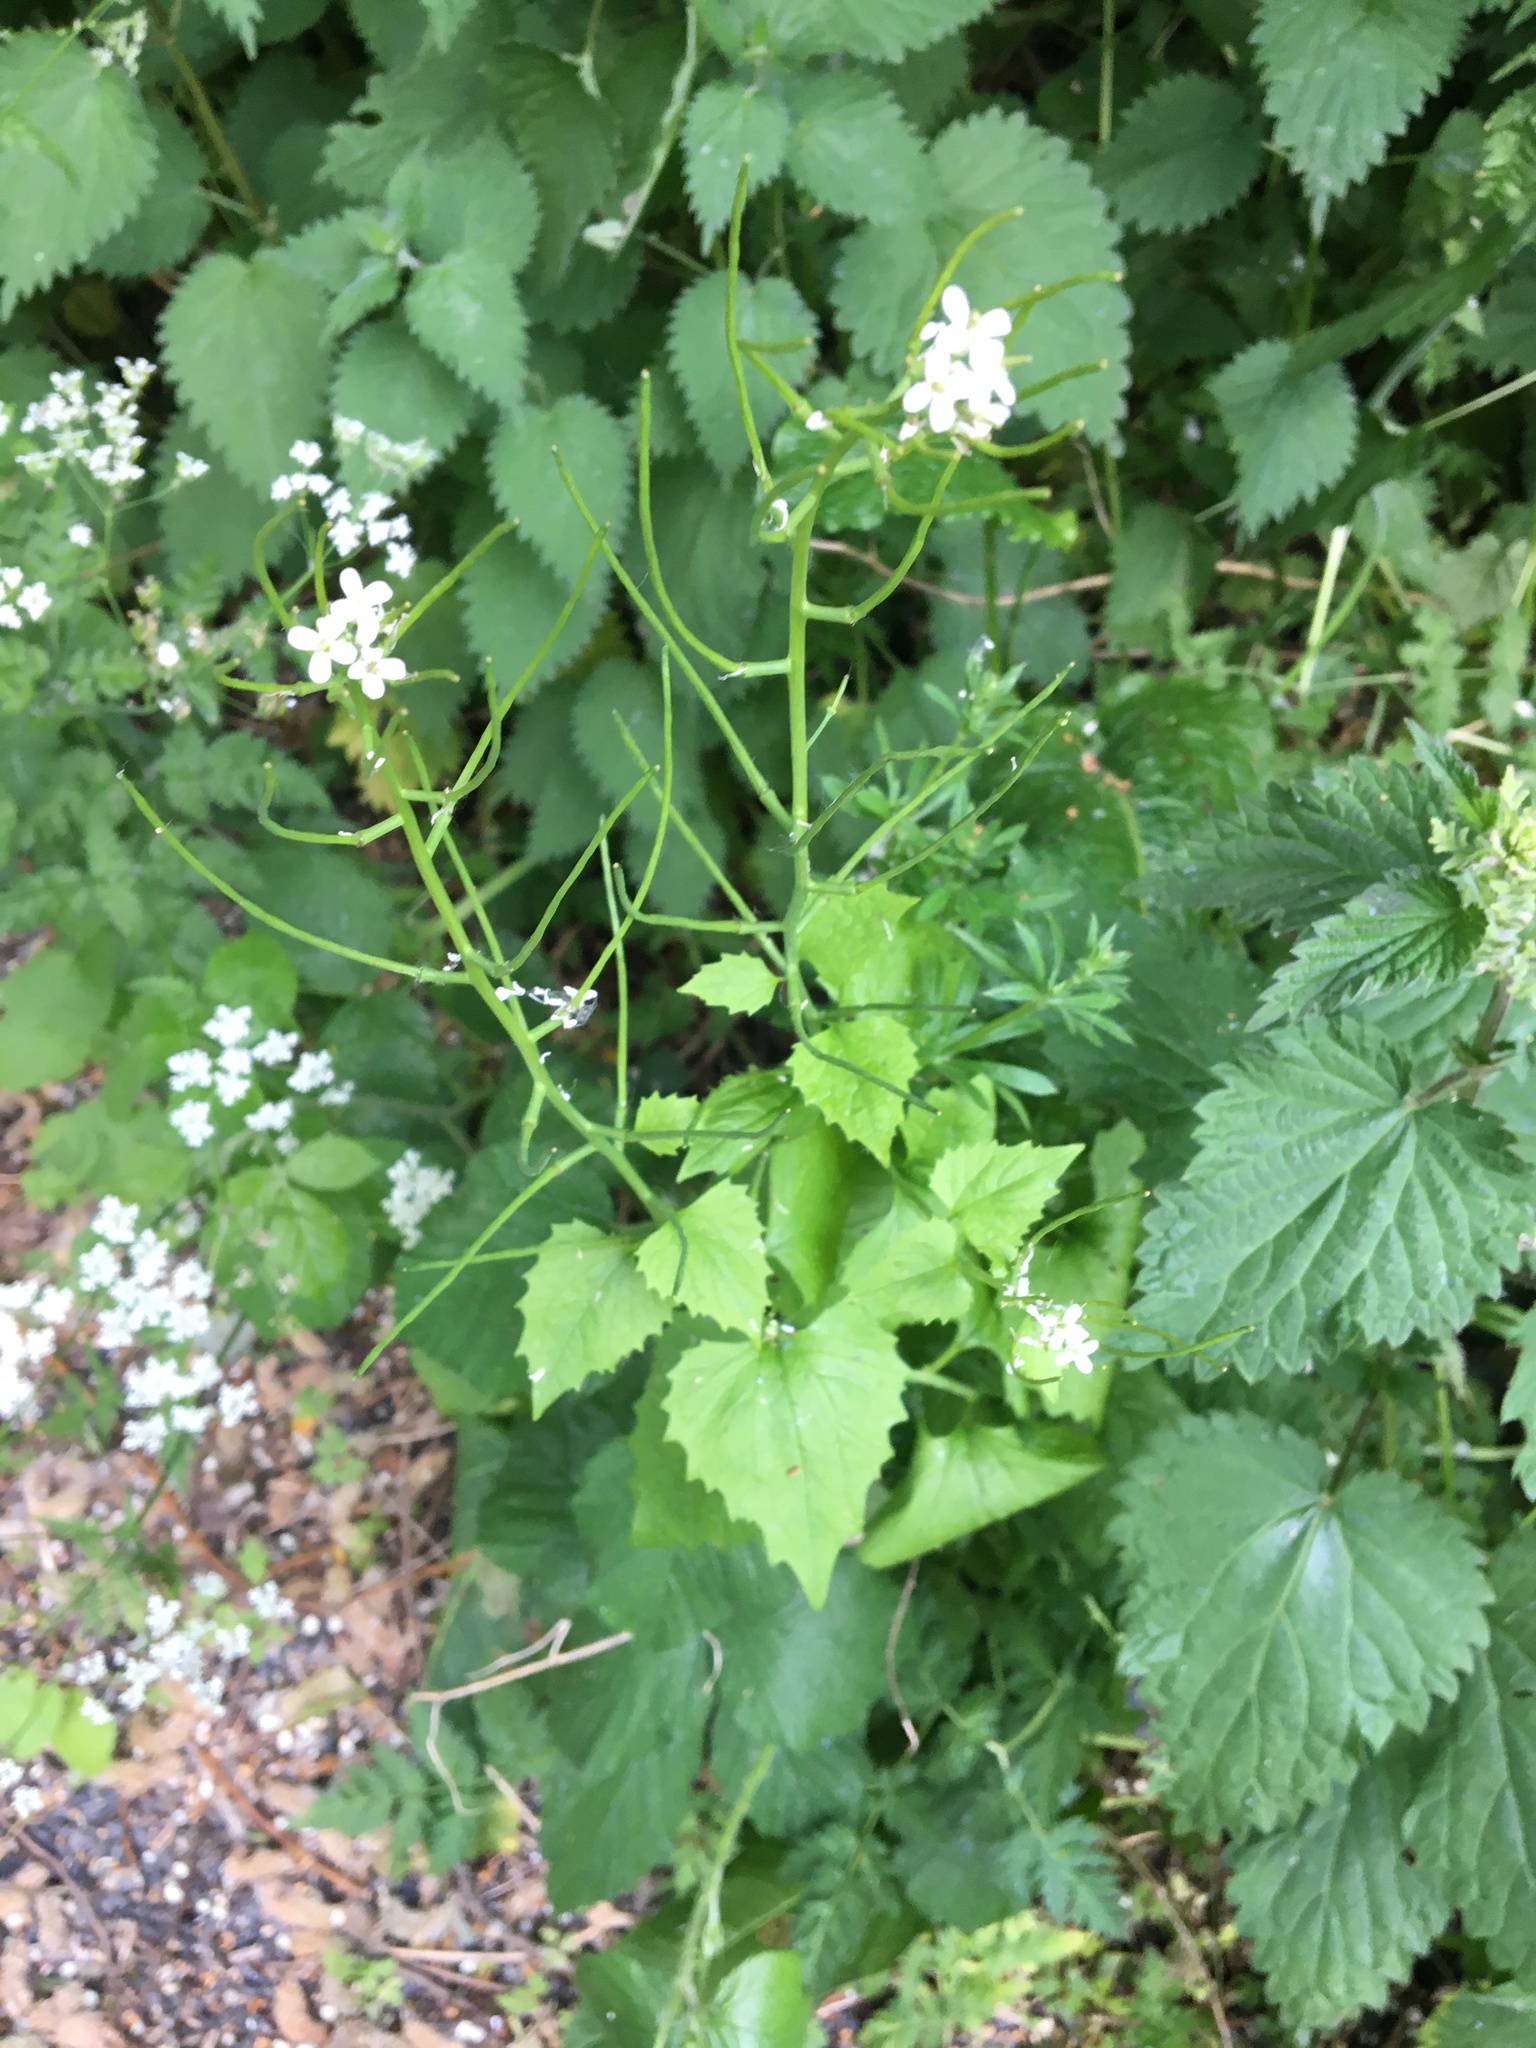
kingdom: Plantae
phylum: Tracheophyta
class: Magnoliopsida
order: Brassicales
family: Brassicaceae
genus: Alliaria
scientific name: Alliaria petiolata
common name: Garlic mustard
